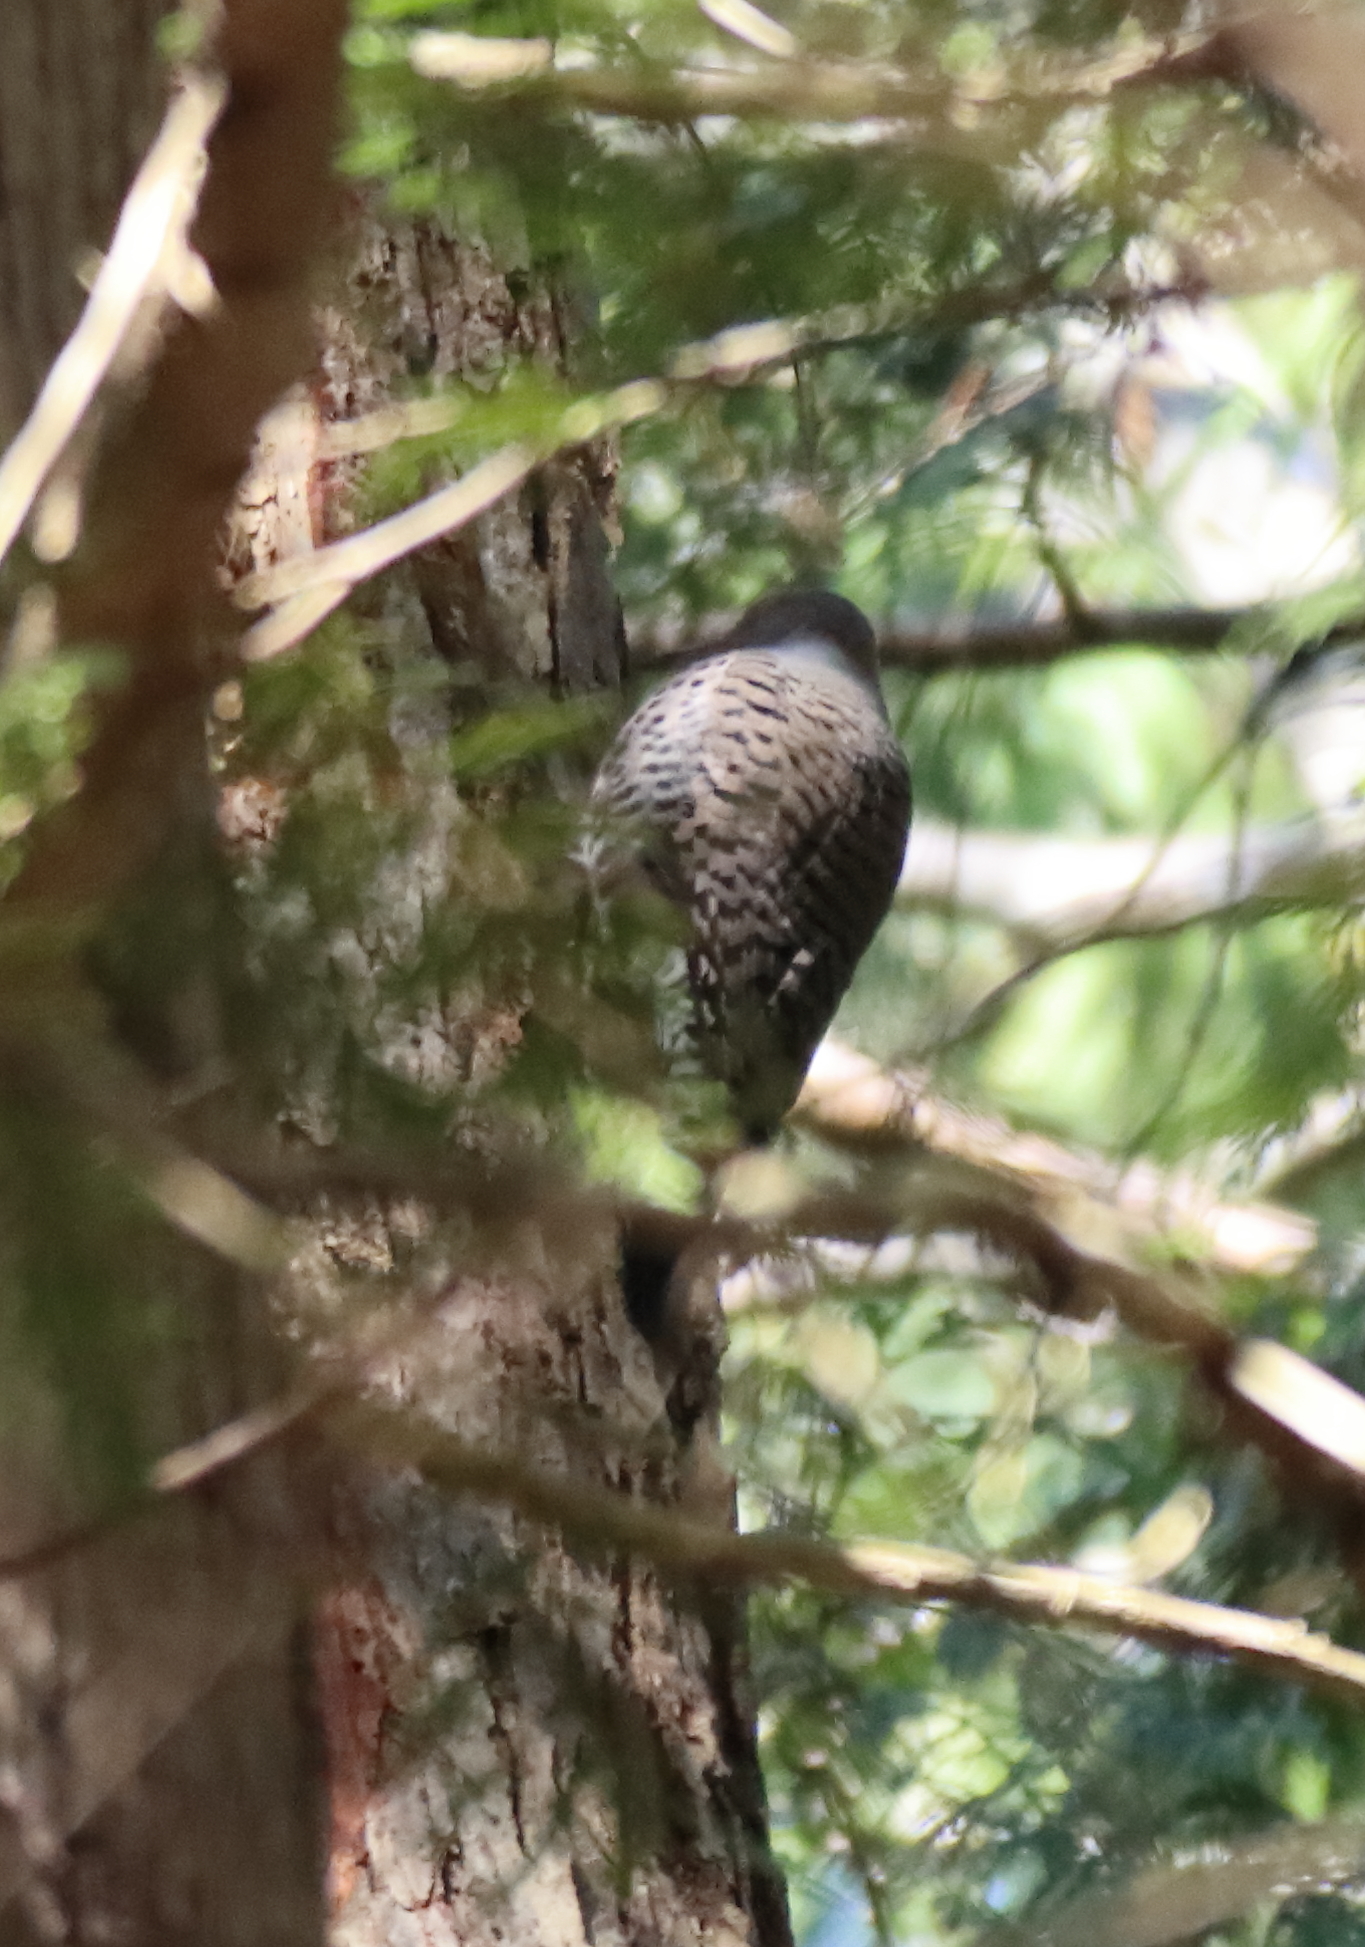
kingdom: Animalia
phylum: Chordata
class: Aves
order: Piciformes
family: Picidae
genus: Colaptes
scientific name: Colaptes auratus
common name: Northern flicker
